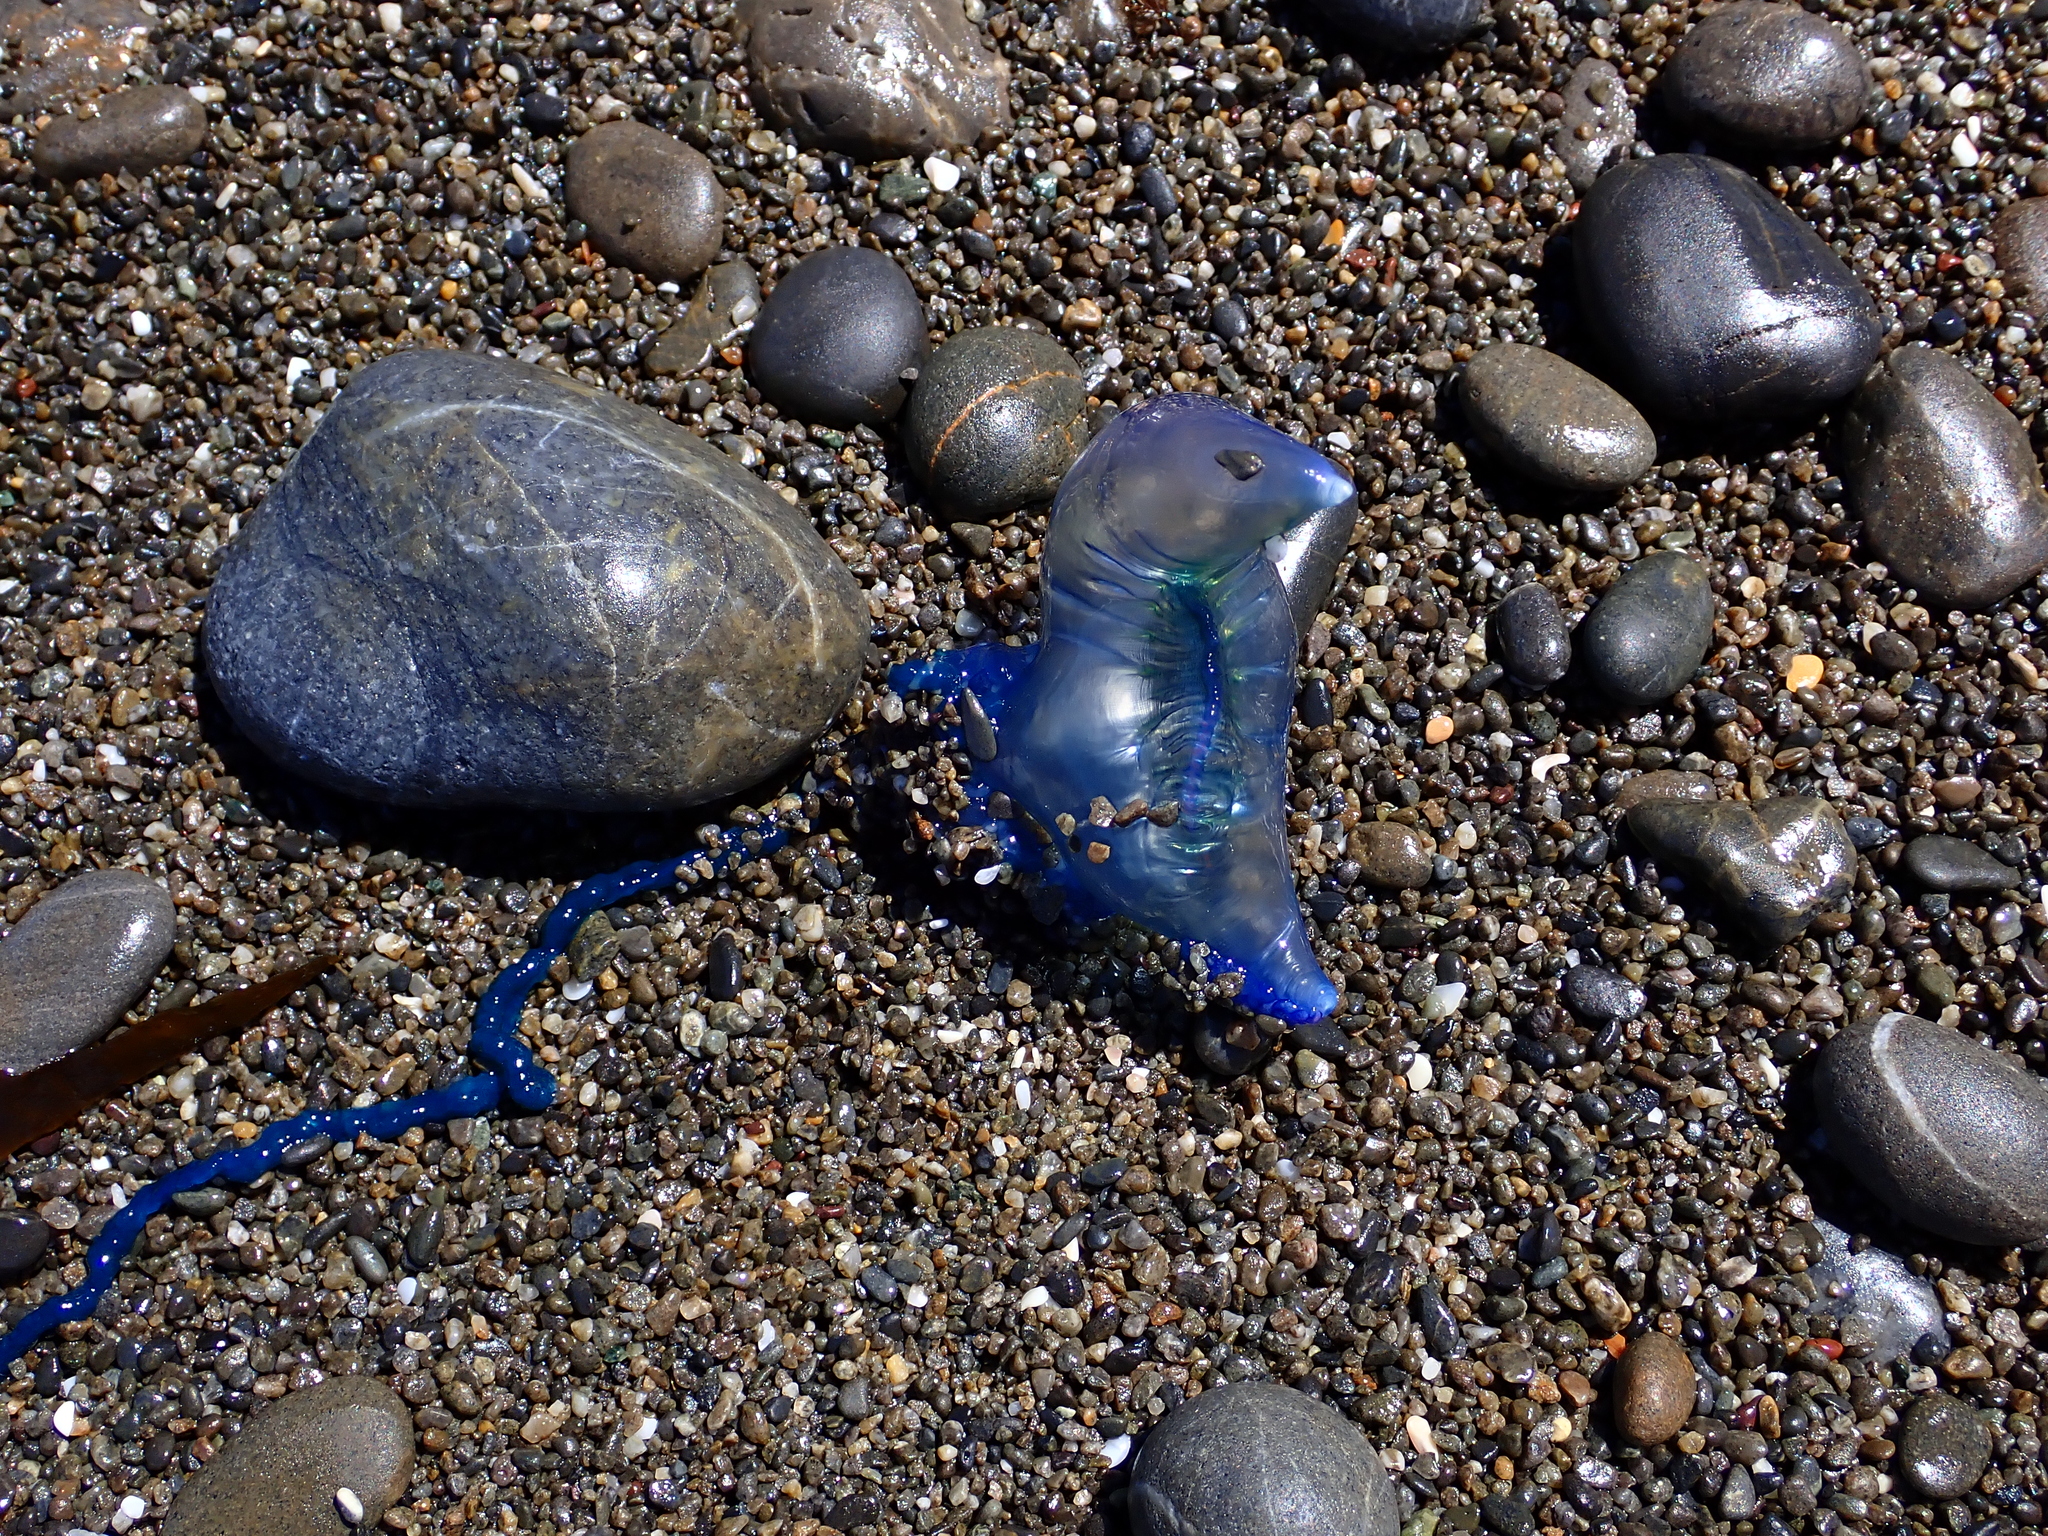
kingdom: Animalia
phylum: Cnidaria
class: Hydrozoa
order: Siphonophorae
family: Physaliidae
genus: Physalia
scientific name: Physalia physalis
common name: Portuguese man-of-war
